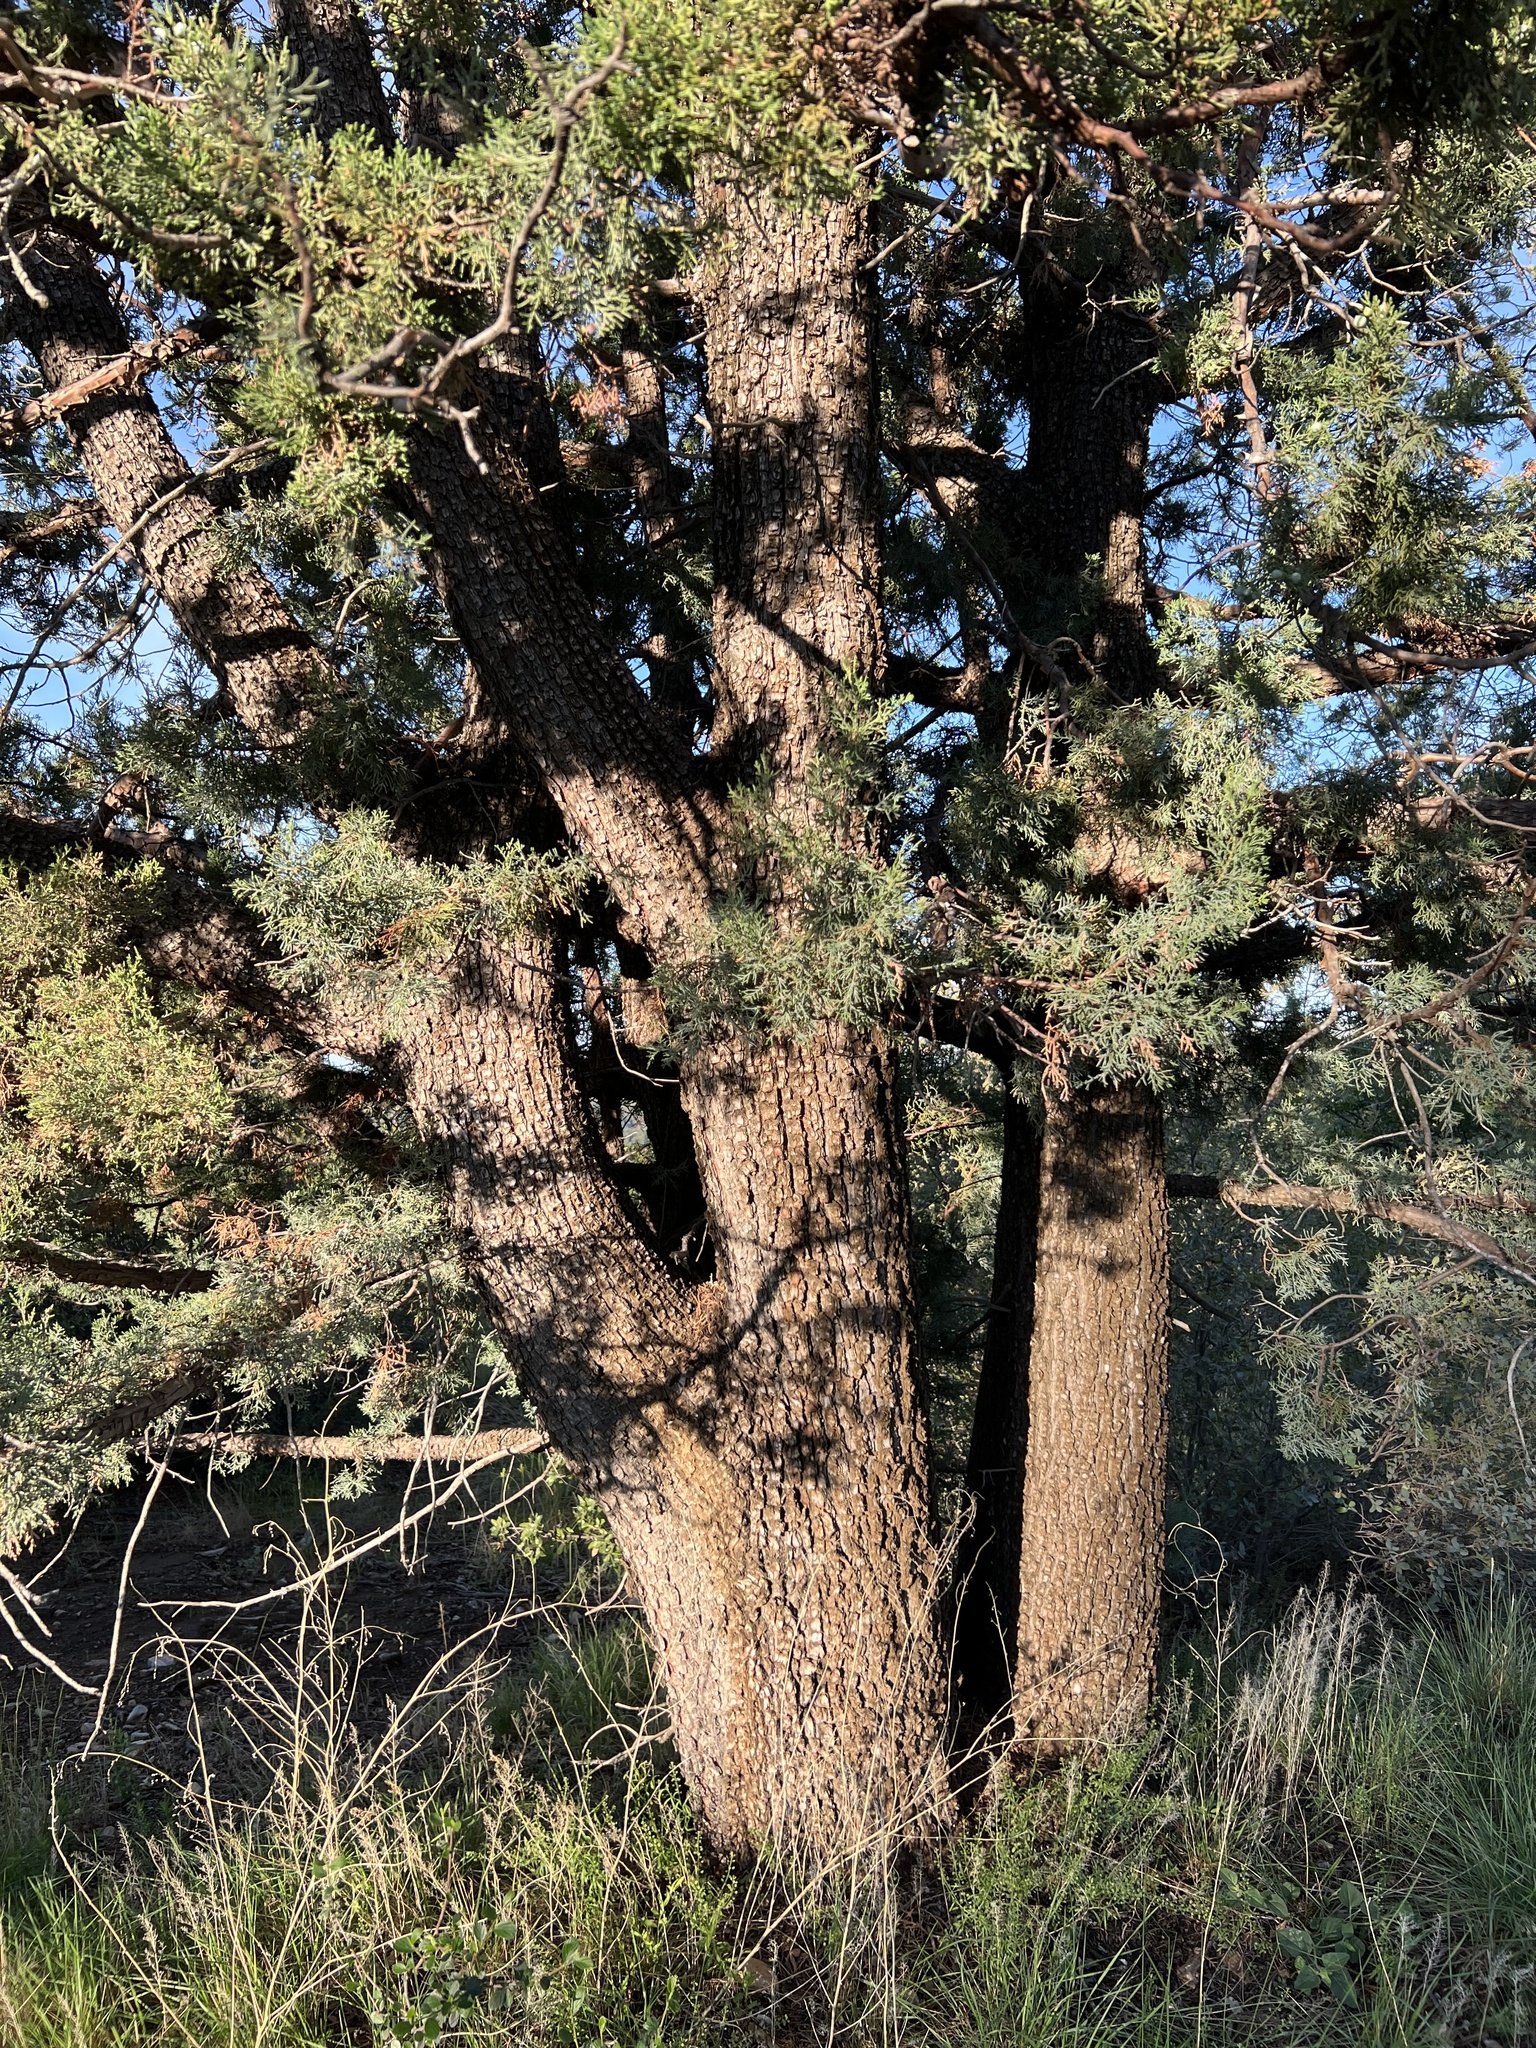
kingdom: Plantae
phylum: Tracheophyta
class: Magnoliopsida
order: Fagales
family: Fagaceae
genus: Quercus
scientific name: Quercus emoryi
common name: Emory oak
